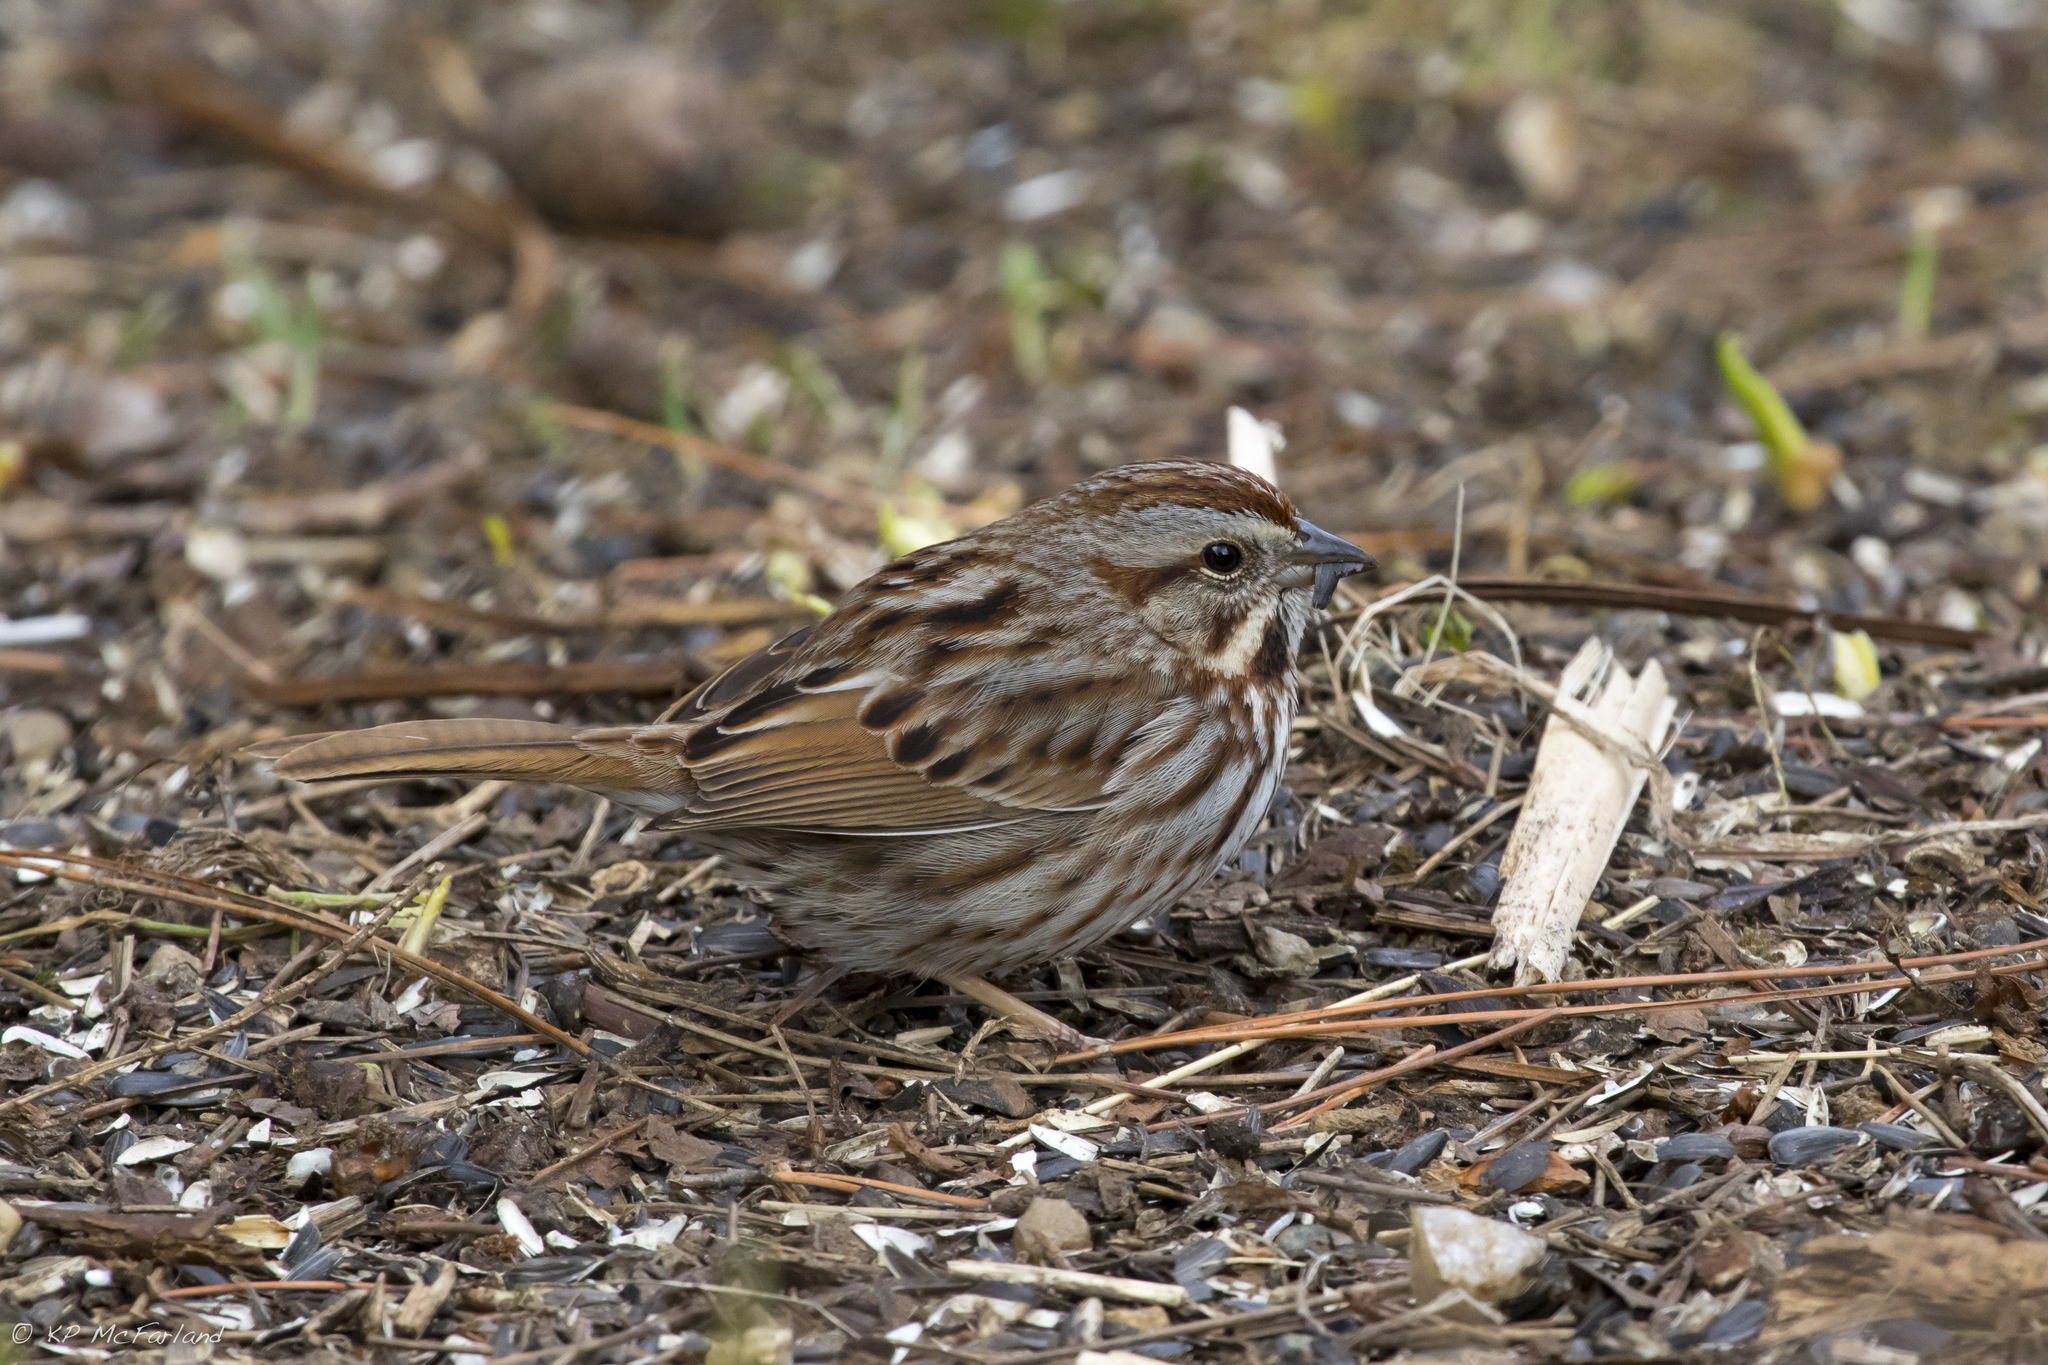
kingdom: Animalia
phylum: Chordata
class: Aves
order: Passeriformes
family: Passerellidae
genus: Melospiza
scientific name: Melospiza melodia
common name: Song sparrow
